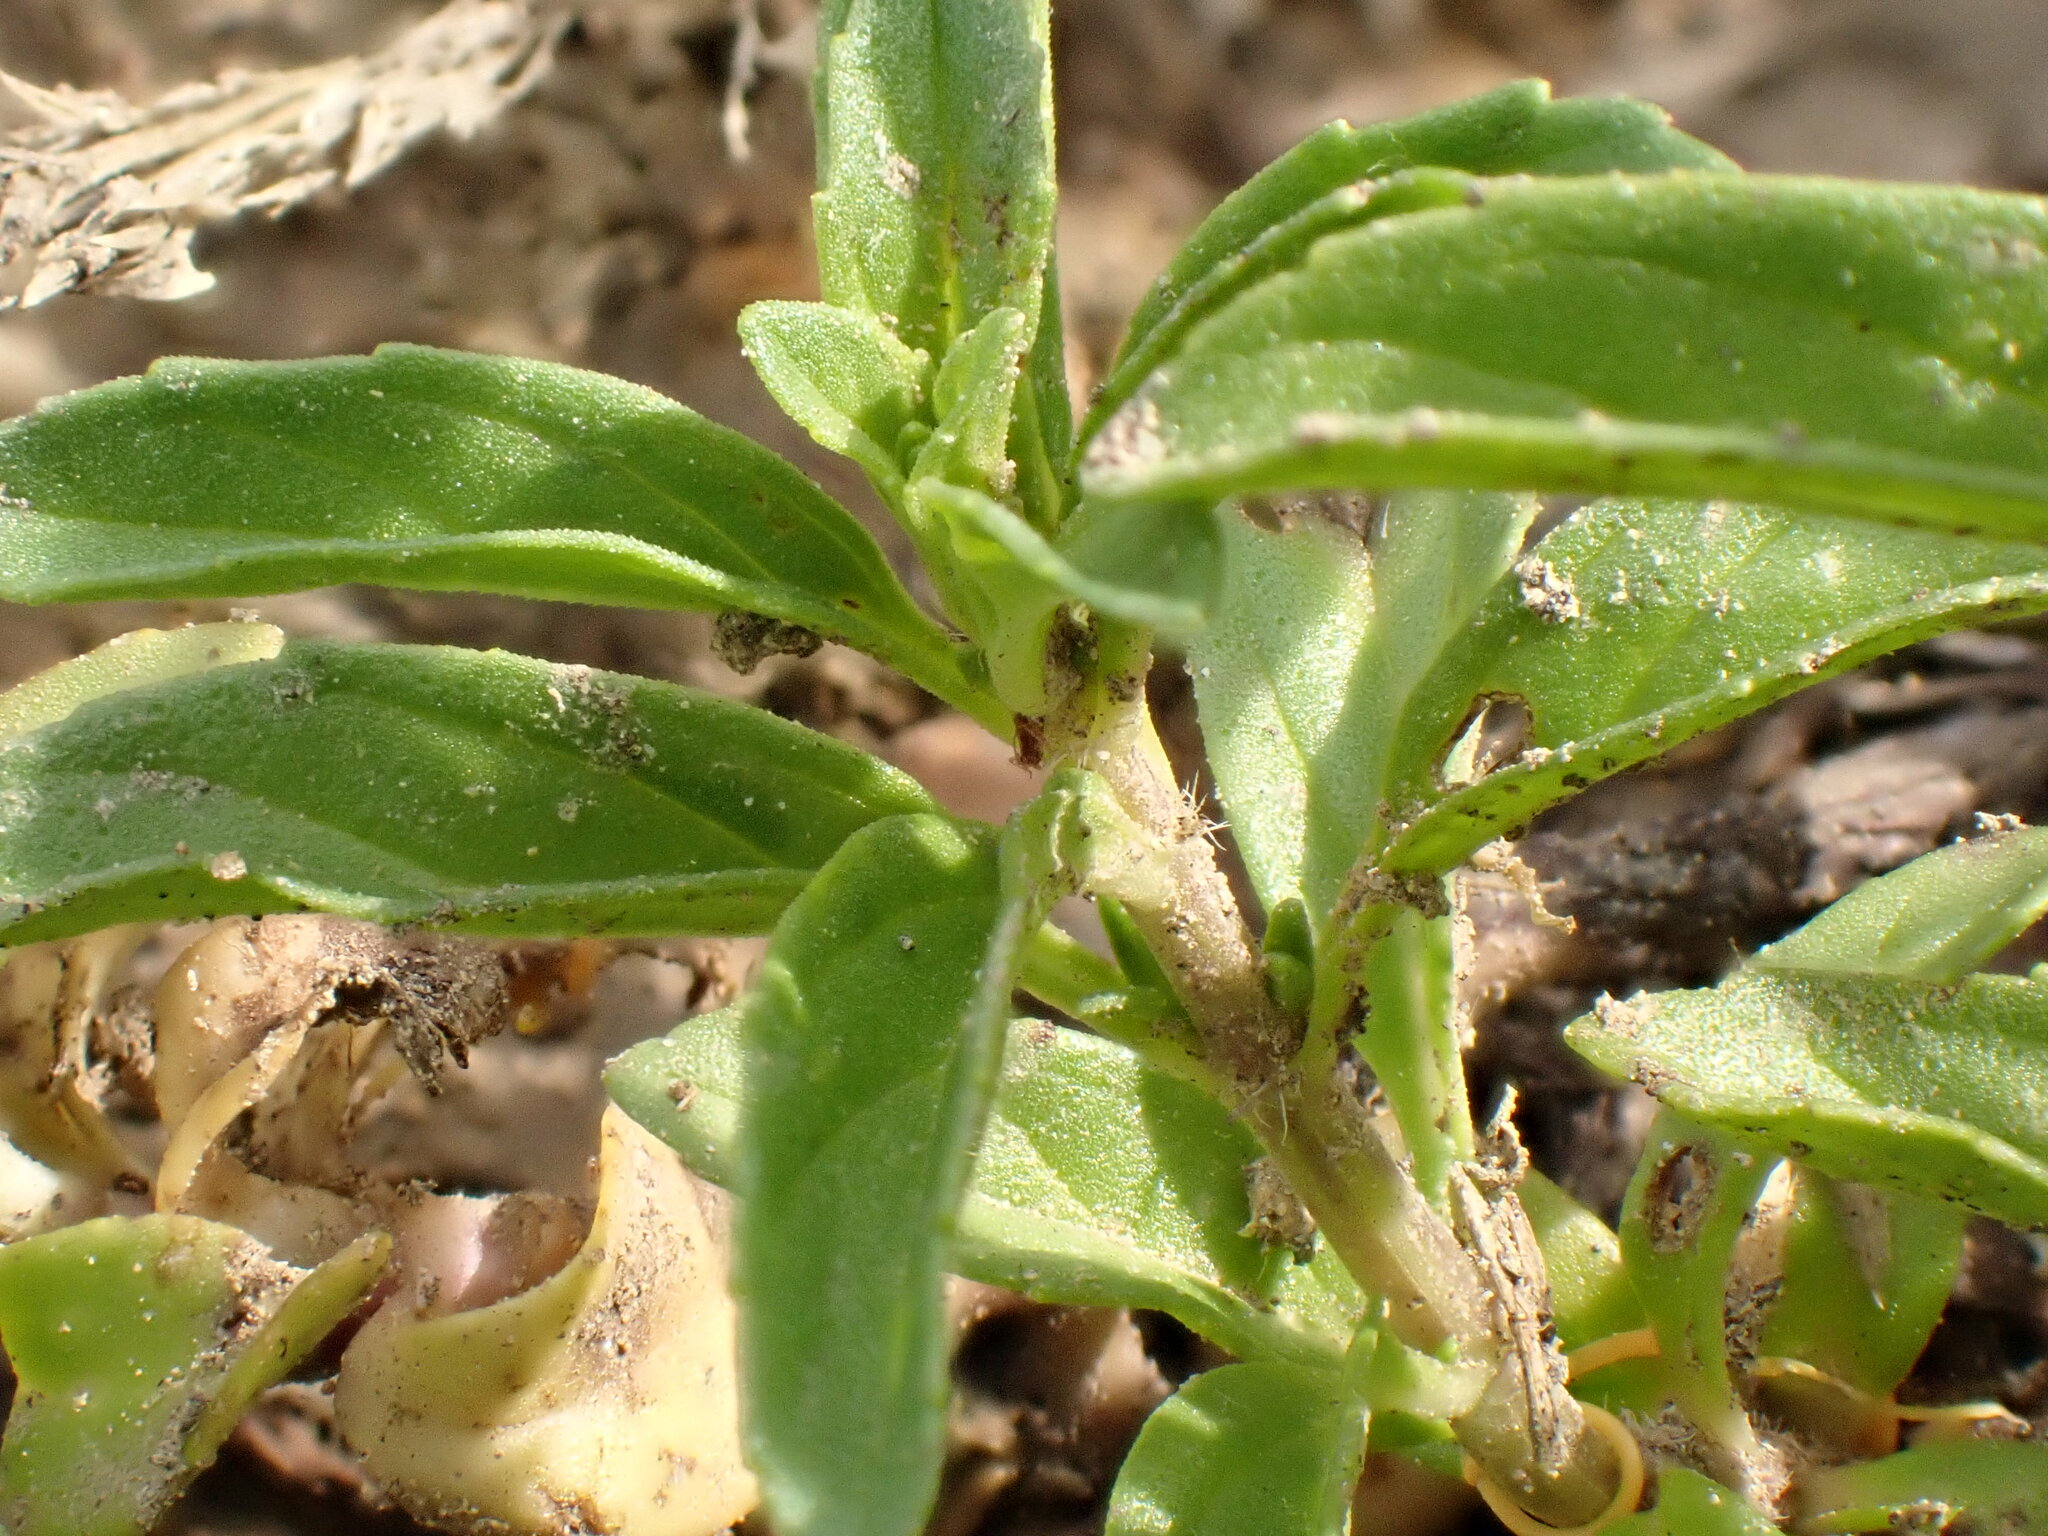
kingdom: Plantae
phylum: Tracheophyta
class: Magnoliopsida
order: Lamiales
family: Lamiaceae
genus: Mentha
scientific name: Mentha pulegium
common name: Pennyroyal
